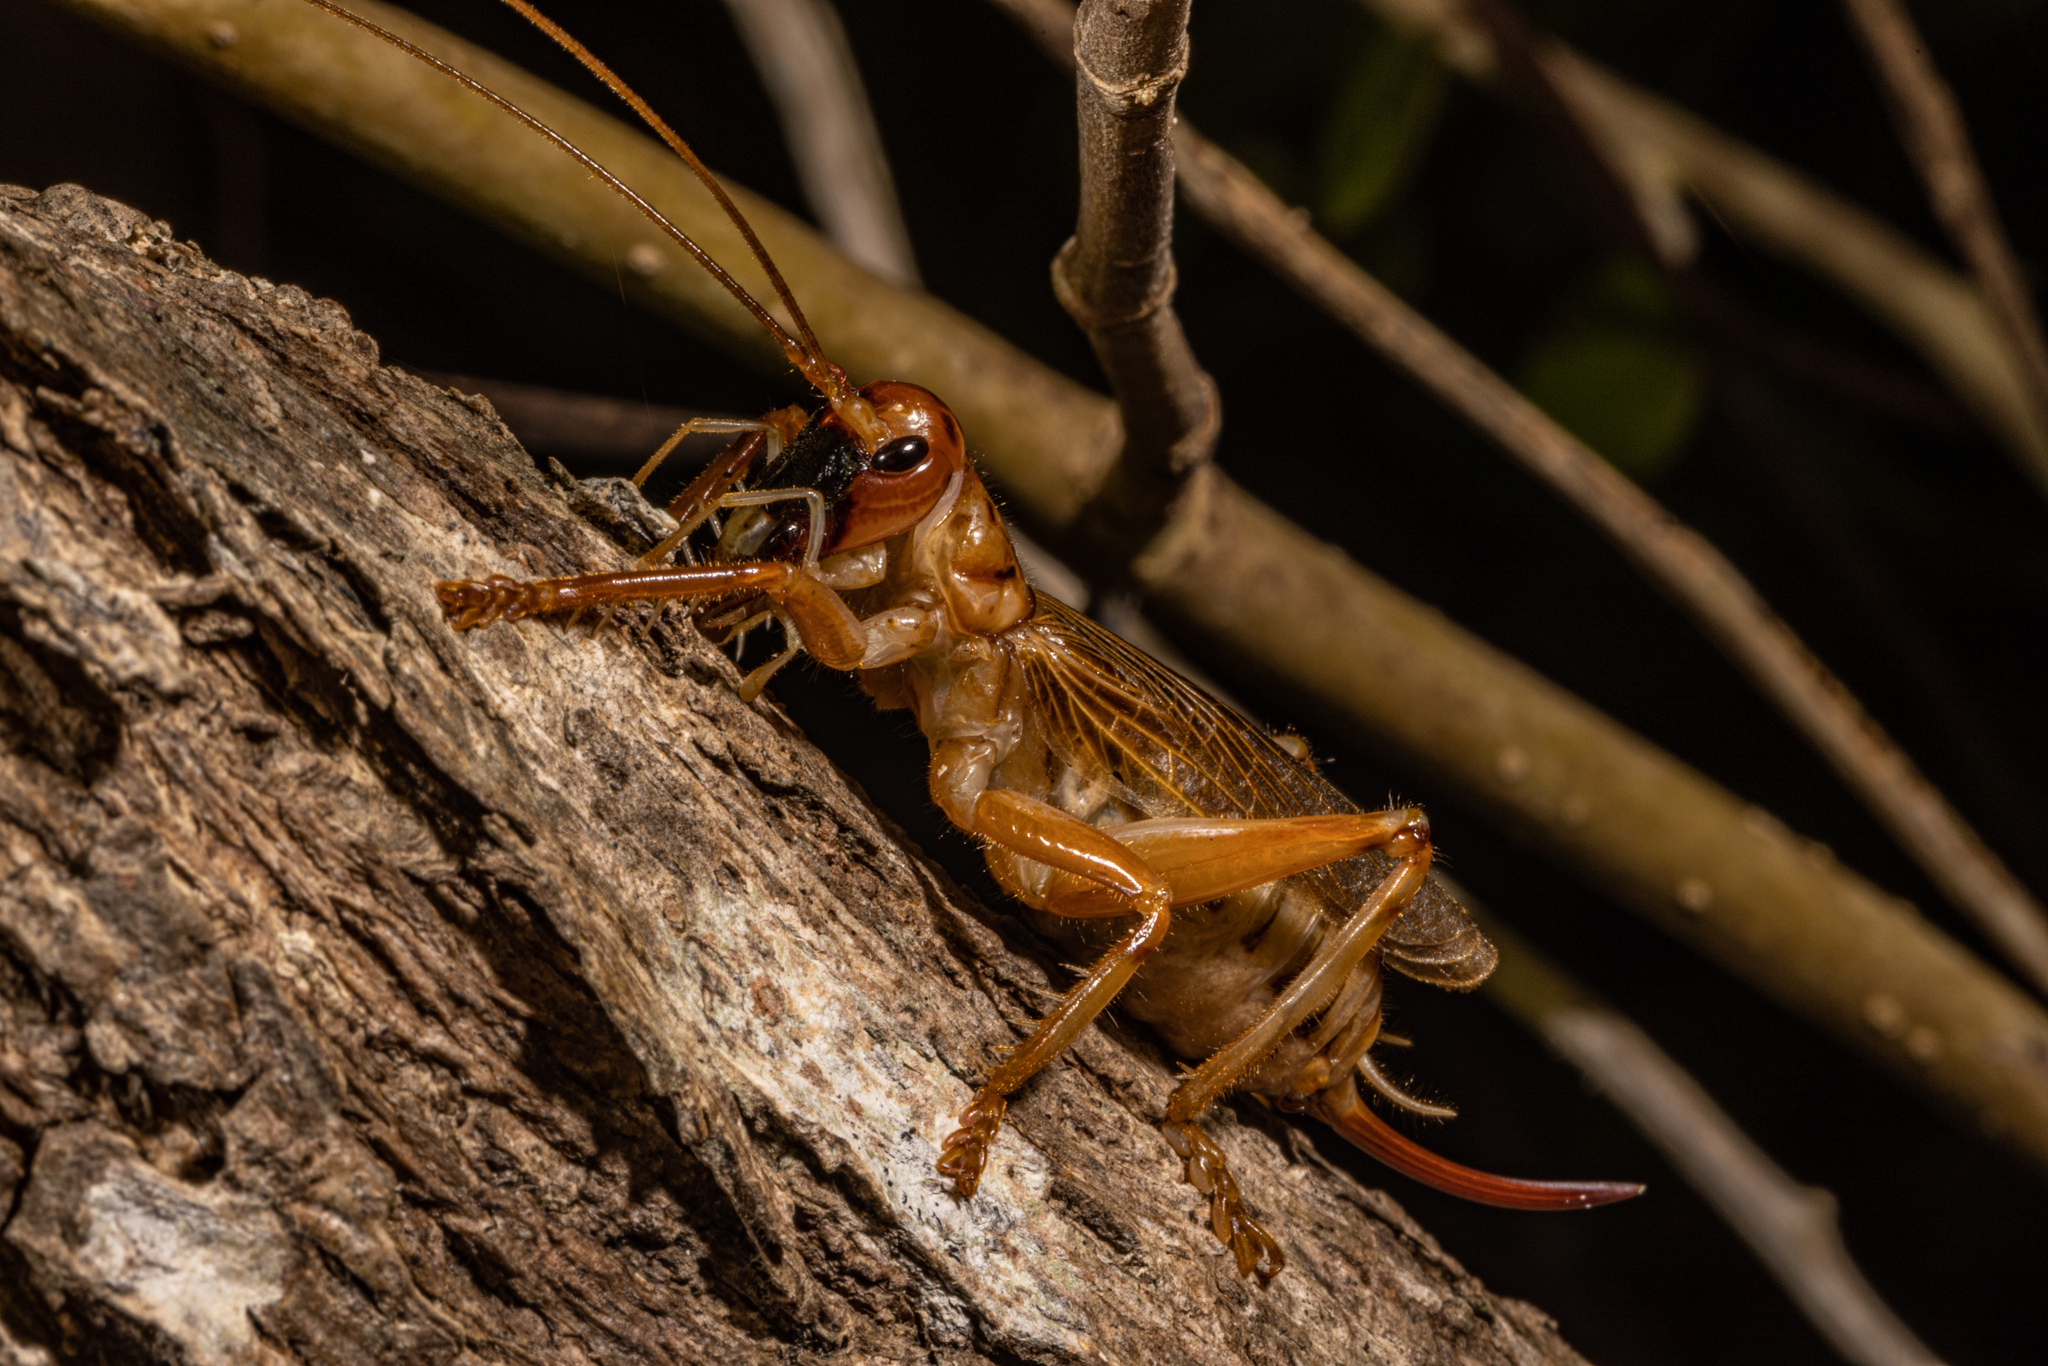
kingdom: Animalia
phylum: Arthropoda
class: Insecta
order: Orthoptera
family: Gryllacrididae
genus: Pterapotrechus
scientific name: Pterapotrechus
